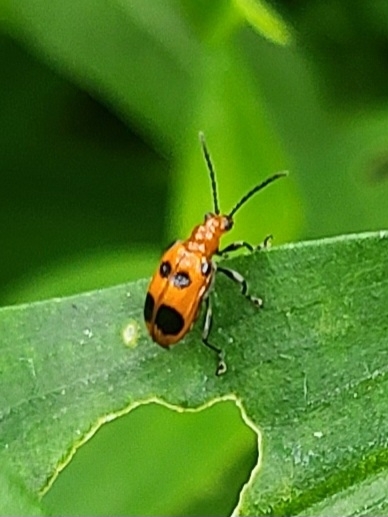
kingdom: Animalia
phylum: Arthropoda
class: Insecta
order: Coleoptera
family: Chrysomelidae
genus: Neolema
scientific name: Neolema sexpunctata
